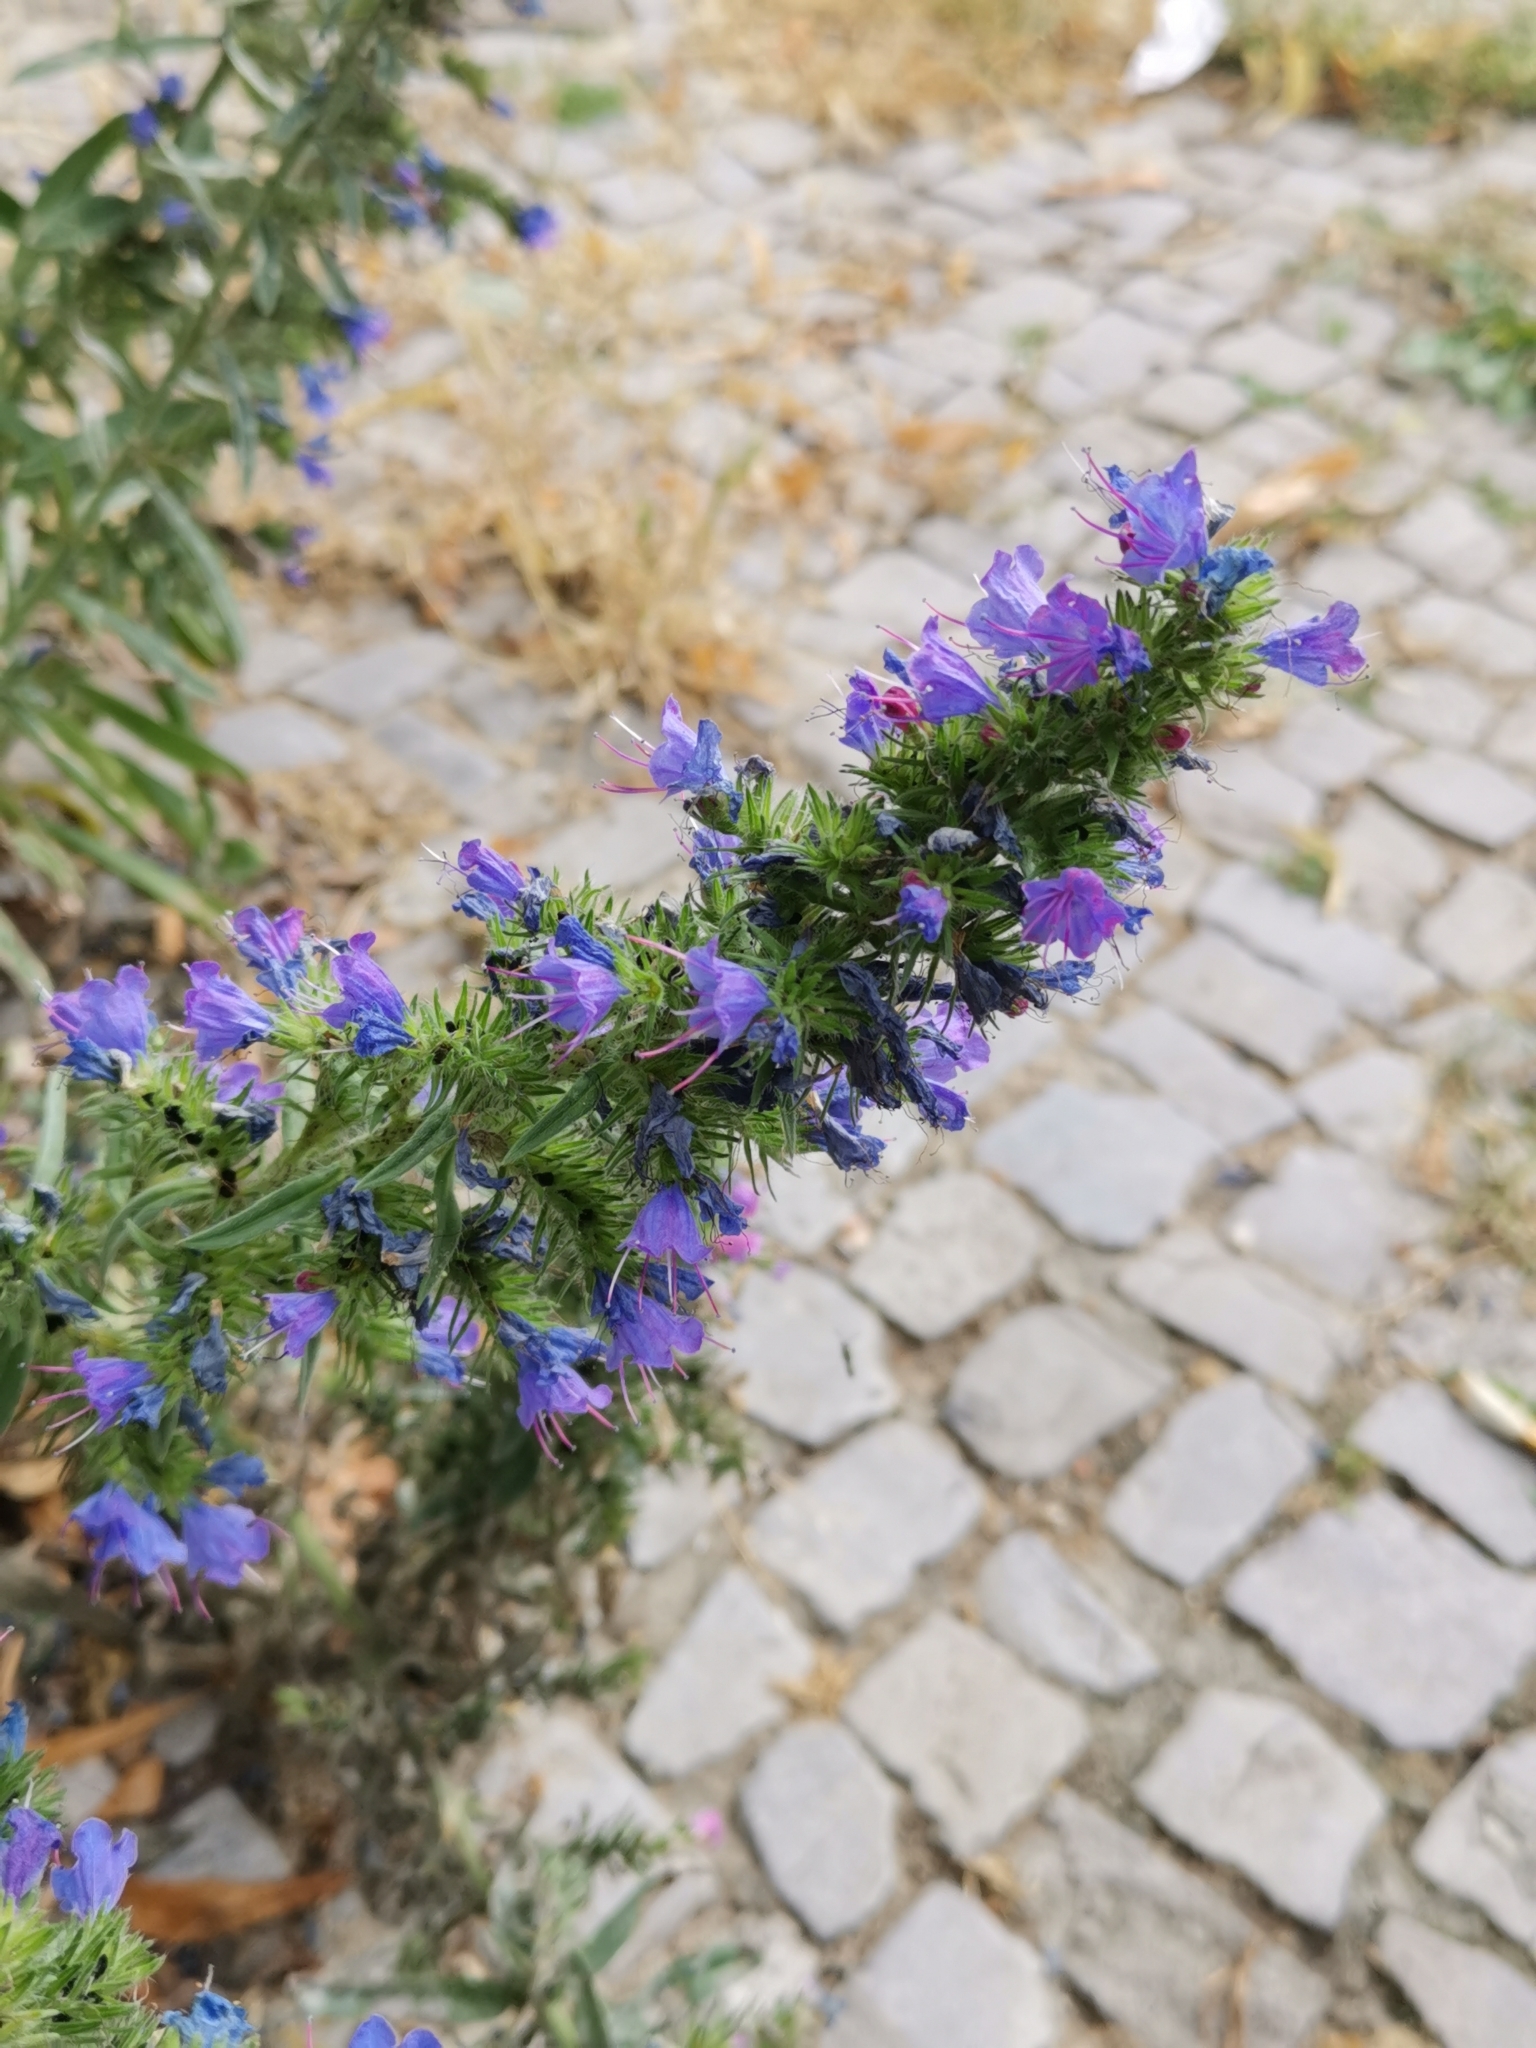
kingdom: Plantae
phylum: Tracheophyta
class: Magnoliopsida
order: Boraginales
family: Boraginaceae
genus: Echium
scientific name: Echium vulgare
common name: Common viper's bugloss
